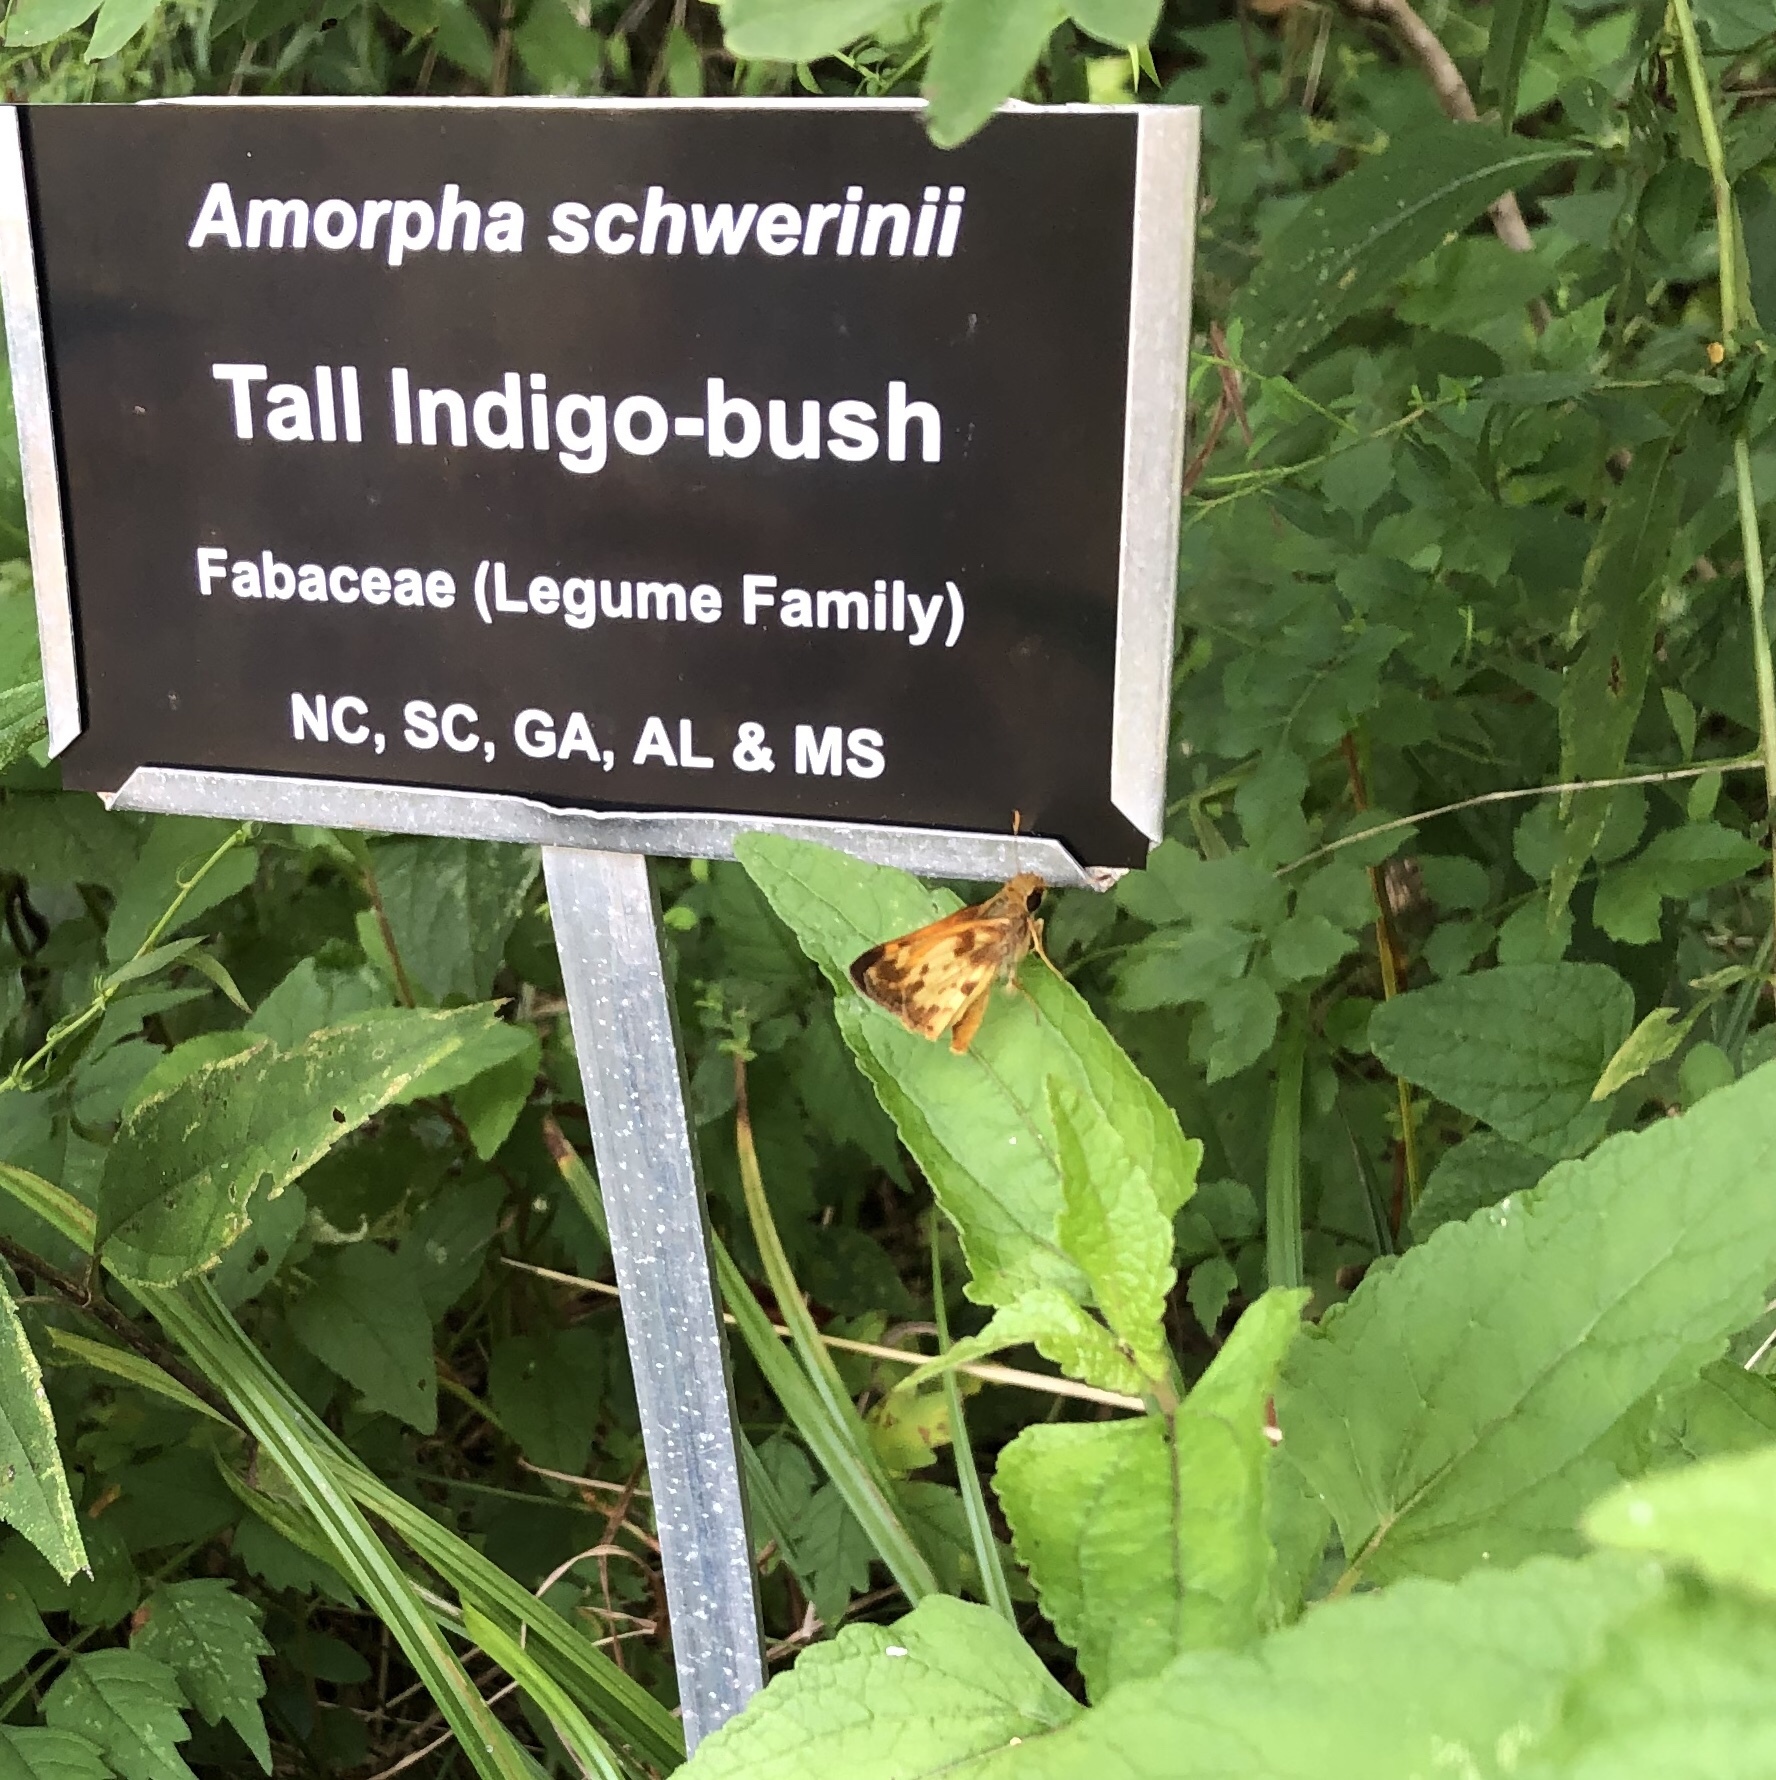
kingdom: Animalia
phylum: Arthropoda
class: Insecta
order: Lepidoptera
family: Hesperiidae
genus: Lon
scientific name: Lon zabulon
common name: Zabulon skipper
